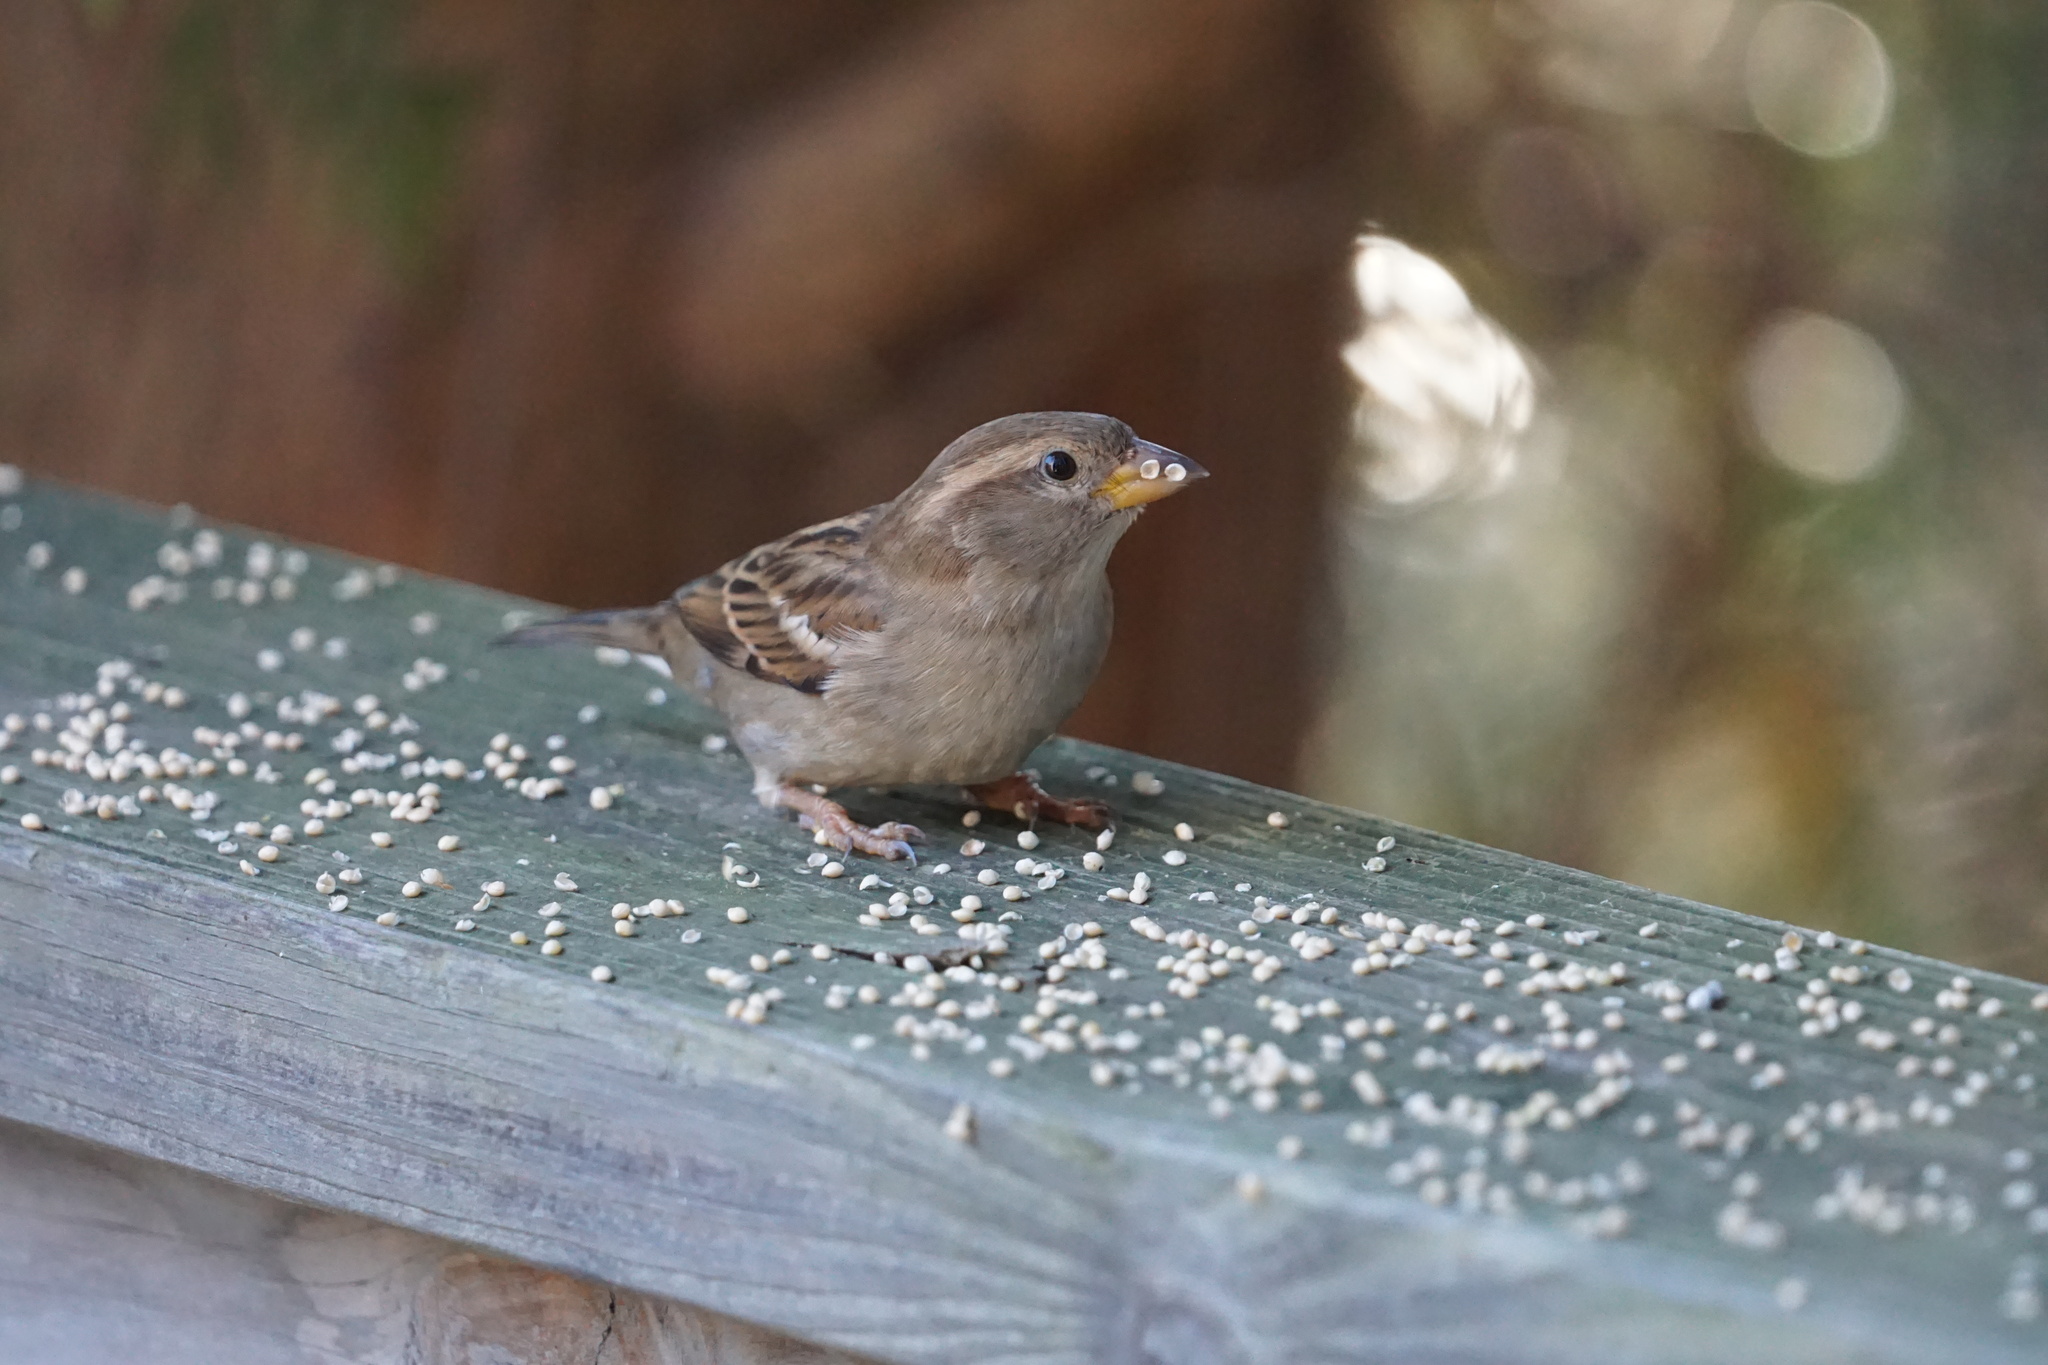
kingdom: Animalia
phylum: Chordata
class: Aves
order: Passeriformes
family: Passeridae
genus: Passer
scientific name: Passer domesticus
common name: House sparrow
